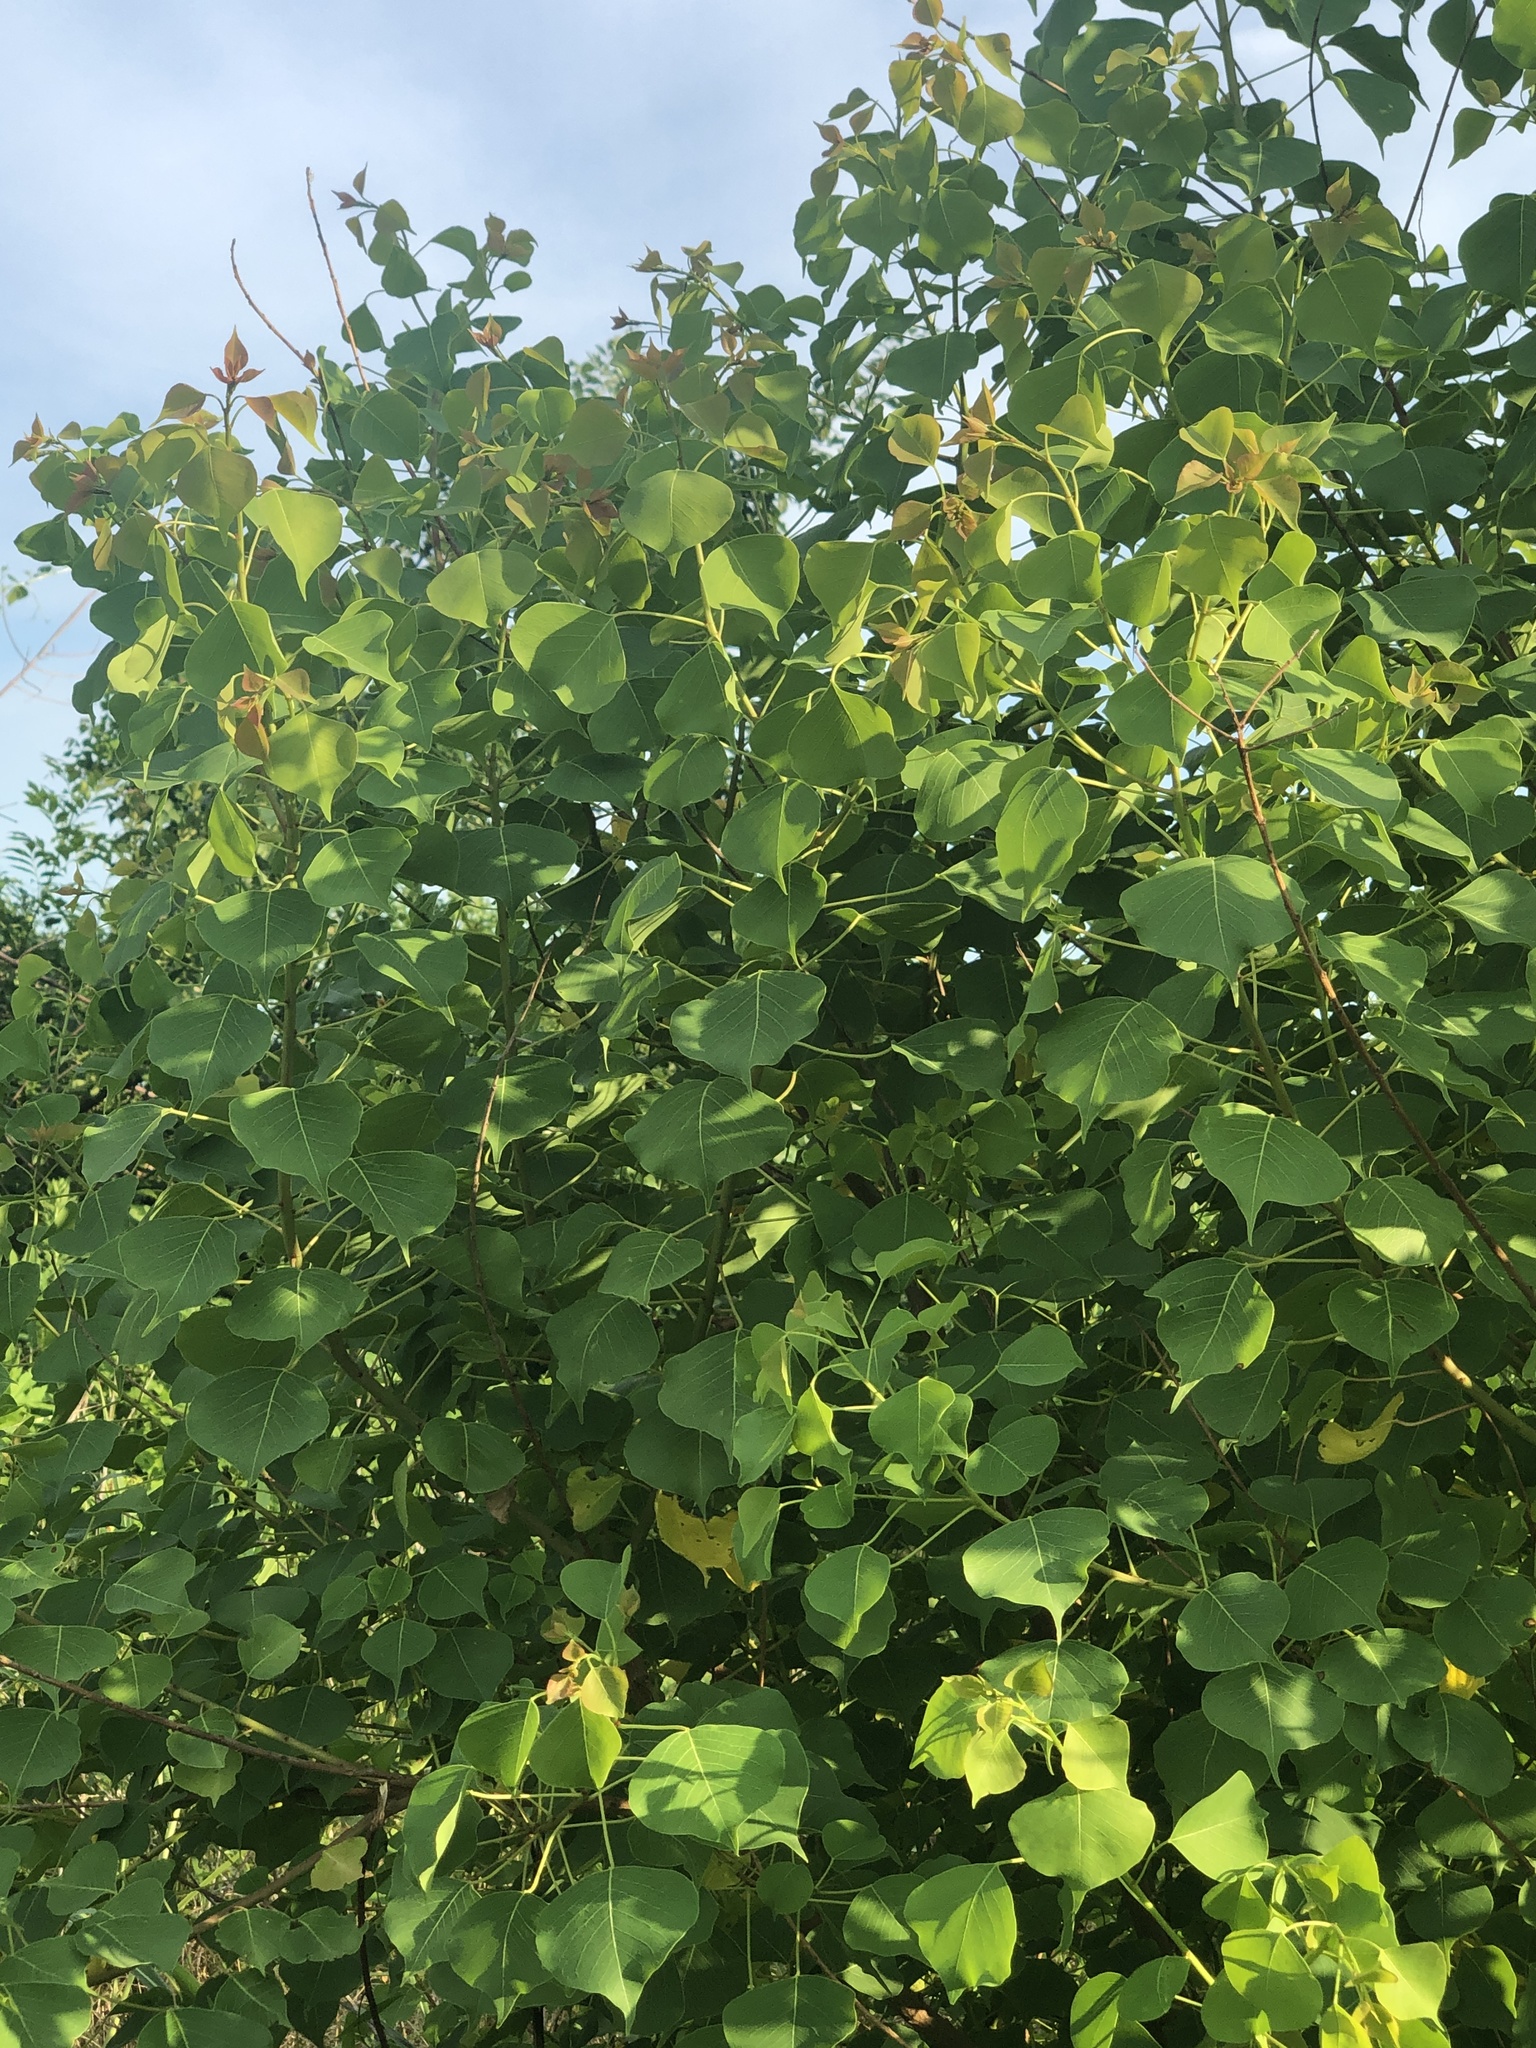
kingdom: Plantae
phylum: Tracheophyta
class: Magnoliopsida
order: Malpighiales
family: Euphorbiaceae
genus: Triadica
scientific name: Triadica sebifera
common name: Chinese tallow
